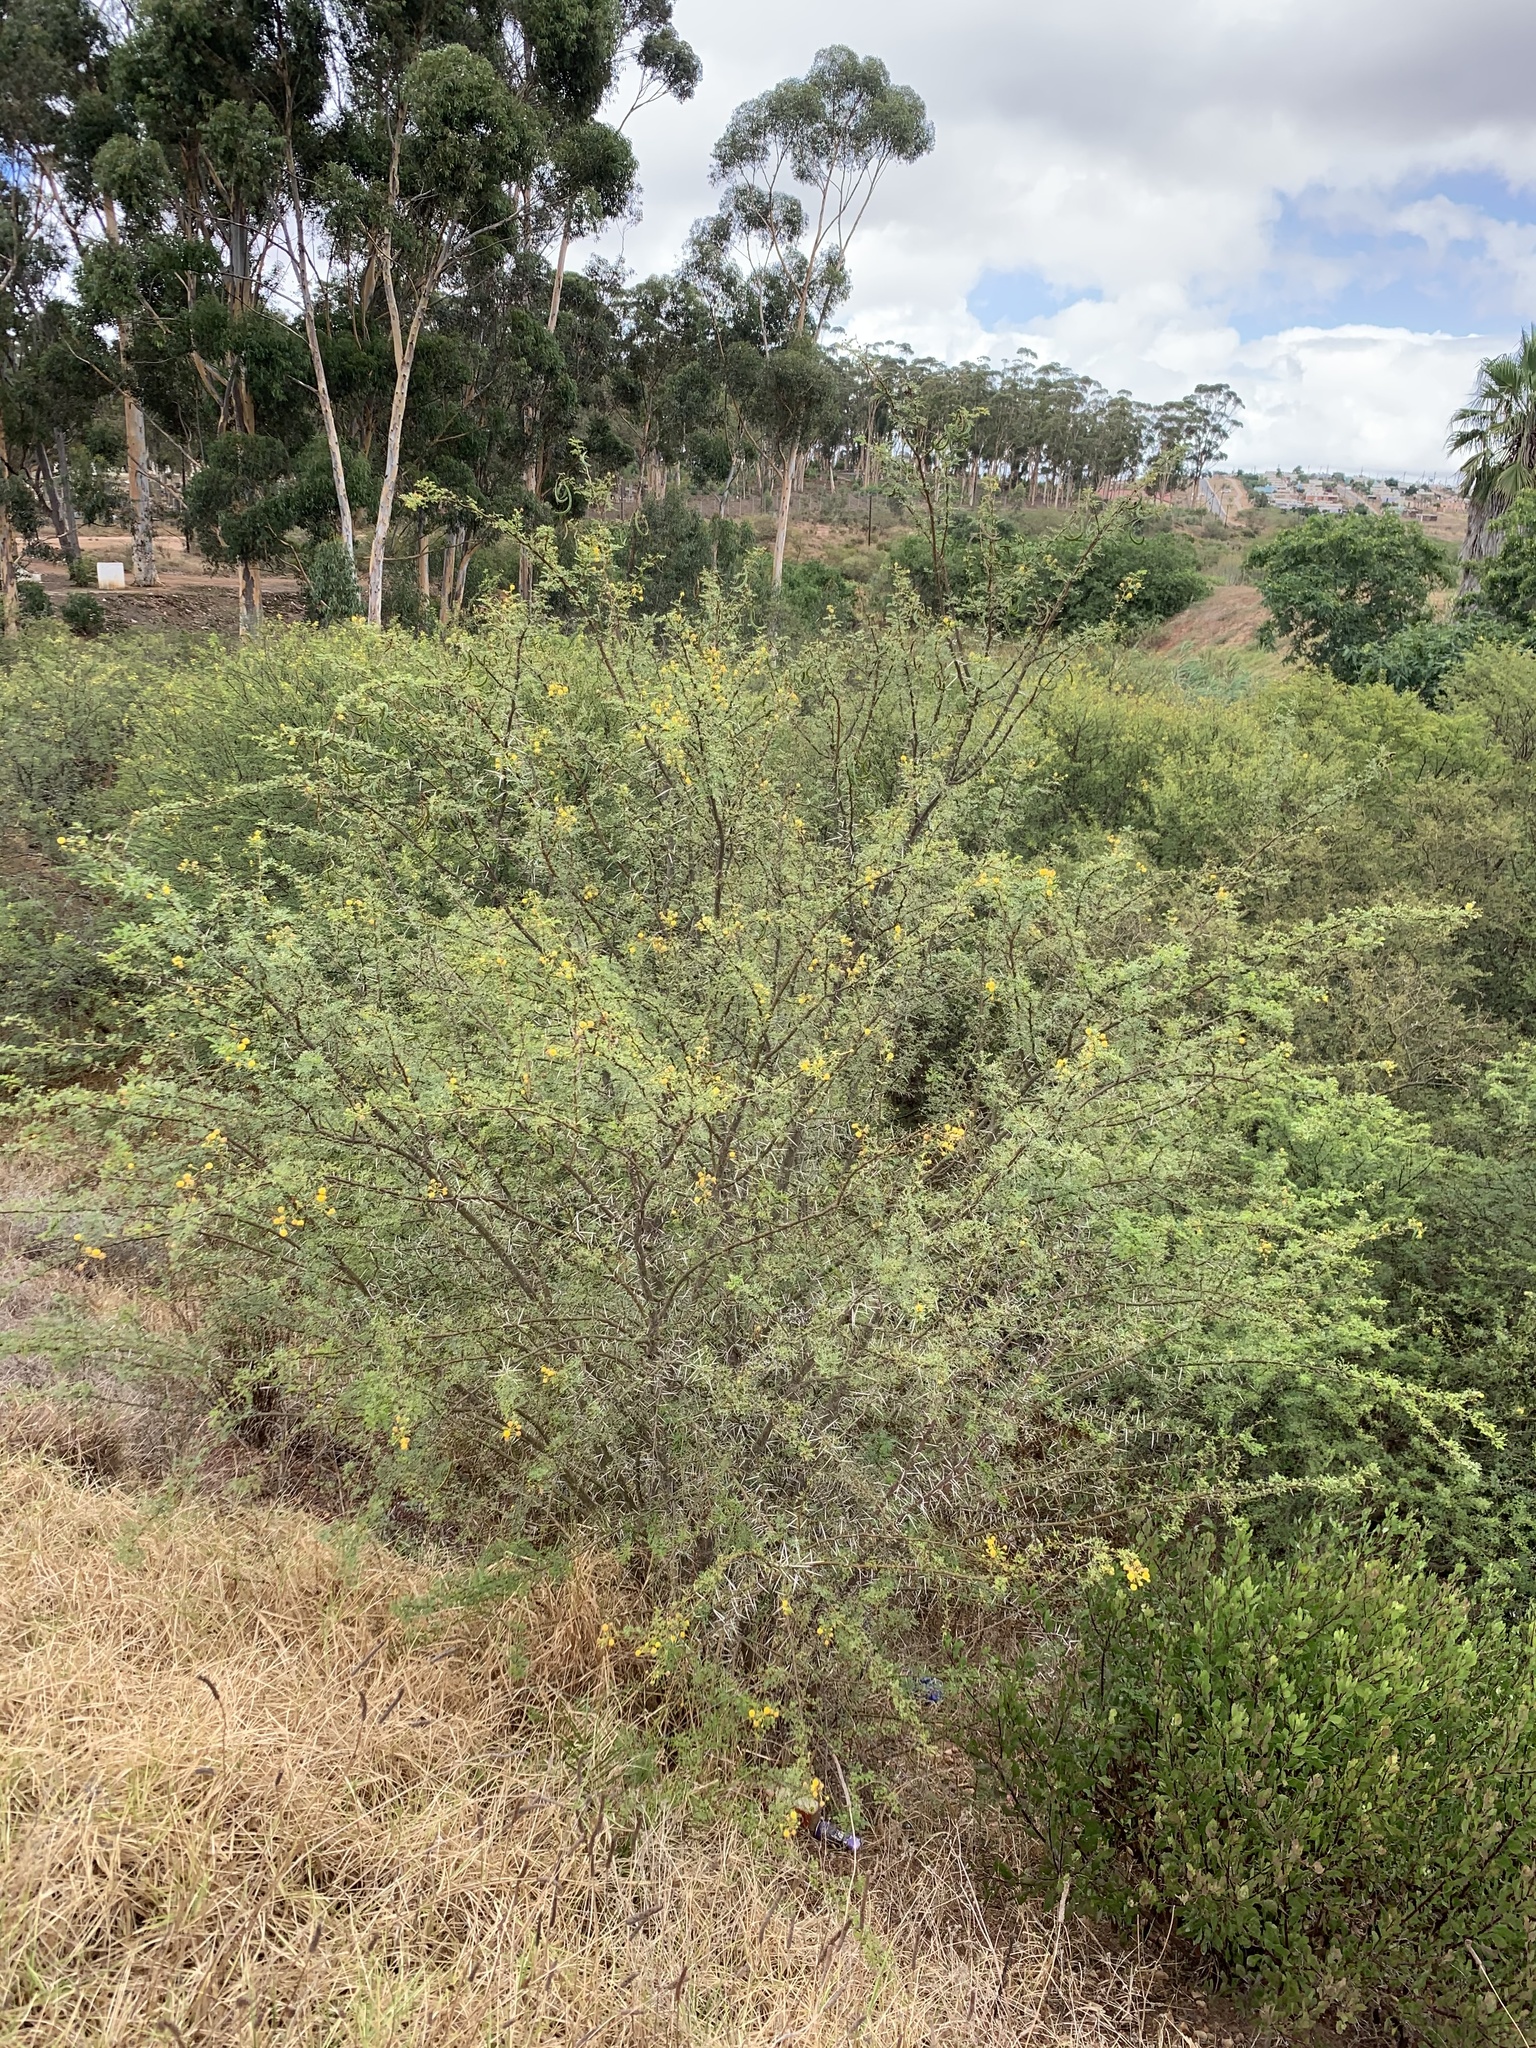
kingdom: Plantae
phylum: Tracheophyta
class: Magnoliopsida
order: Fabales
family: Fabaceae
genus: Vachellia
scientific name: Vachellia karroo
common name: Sweet thorn
